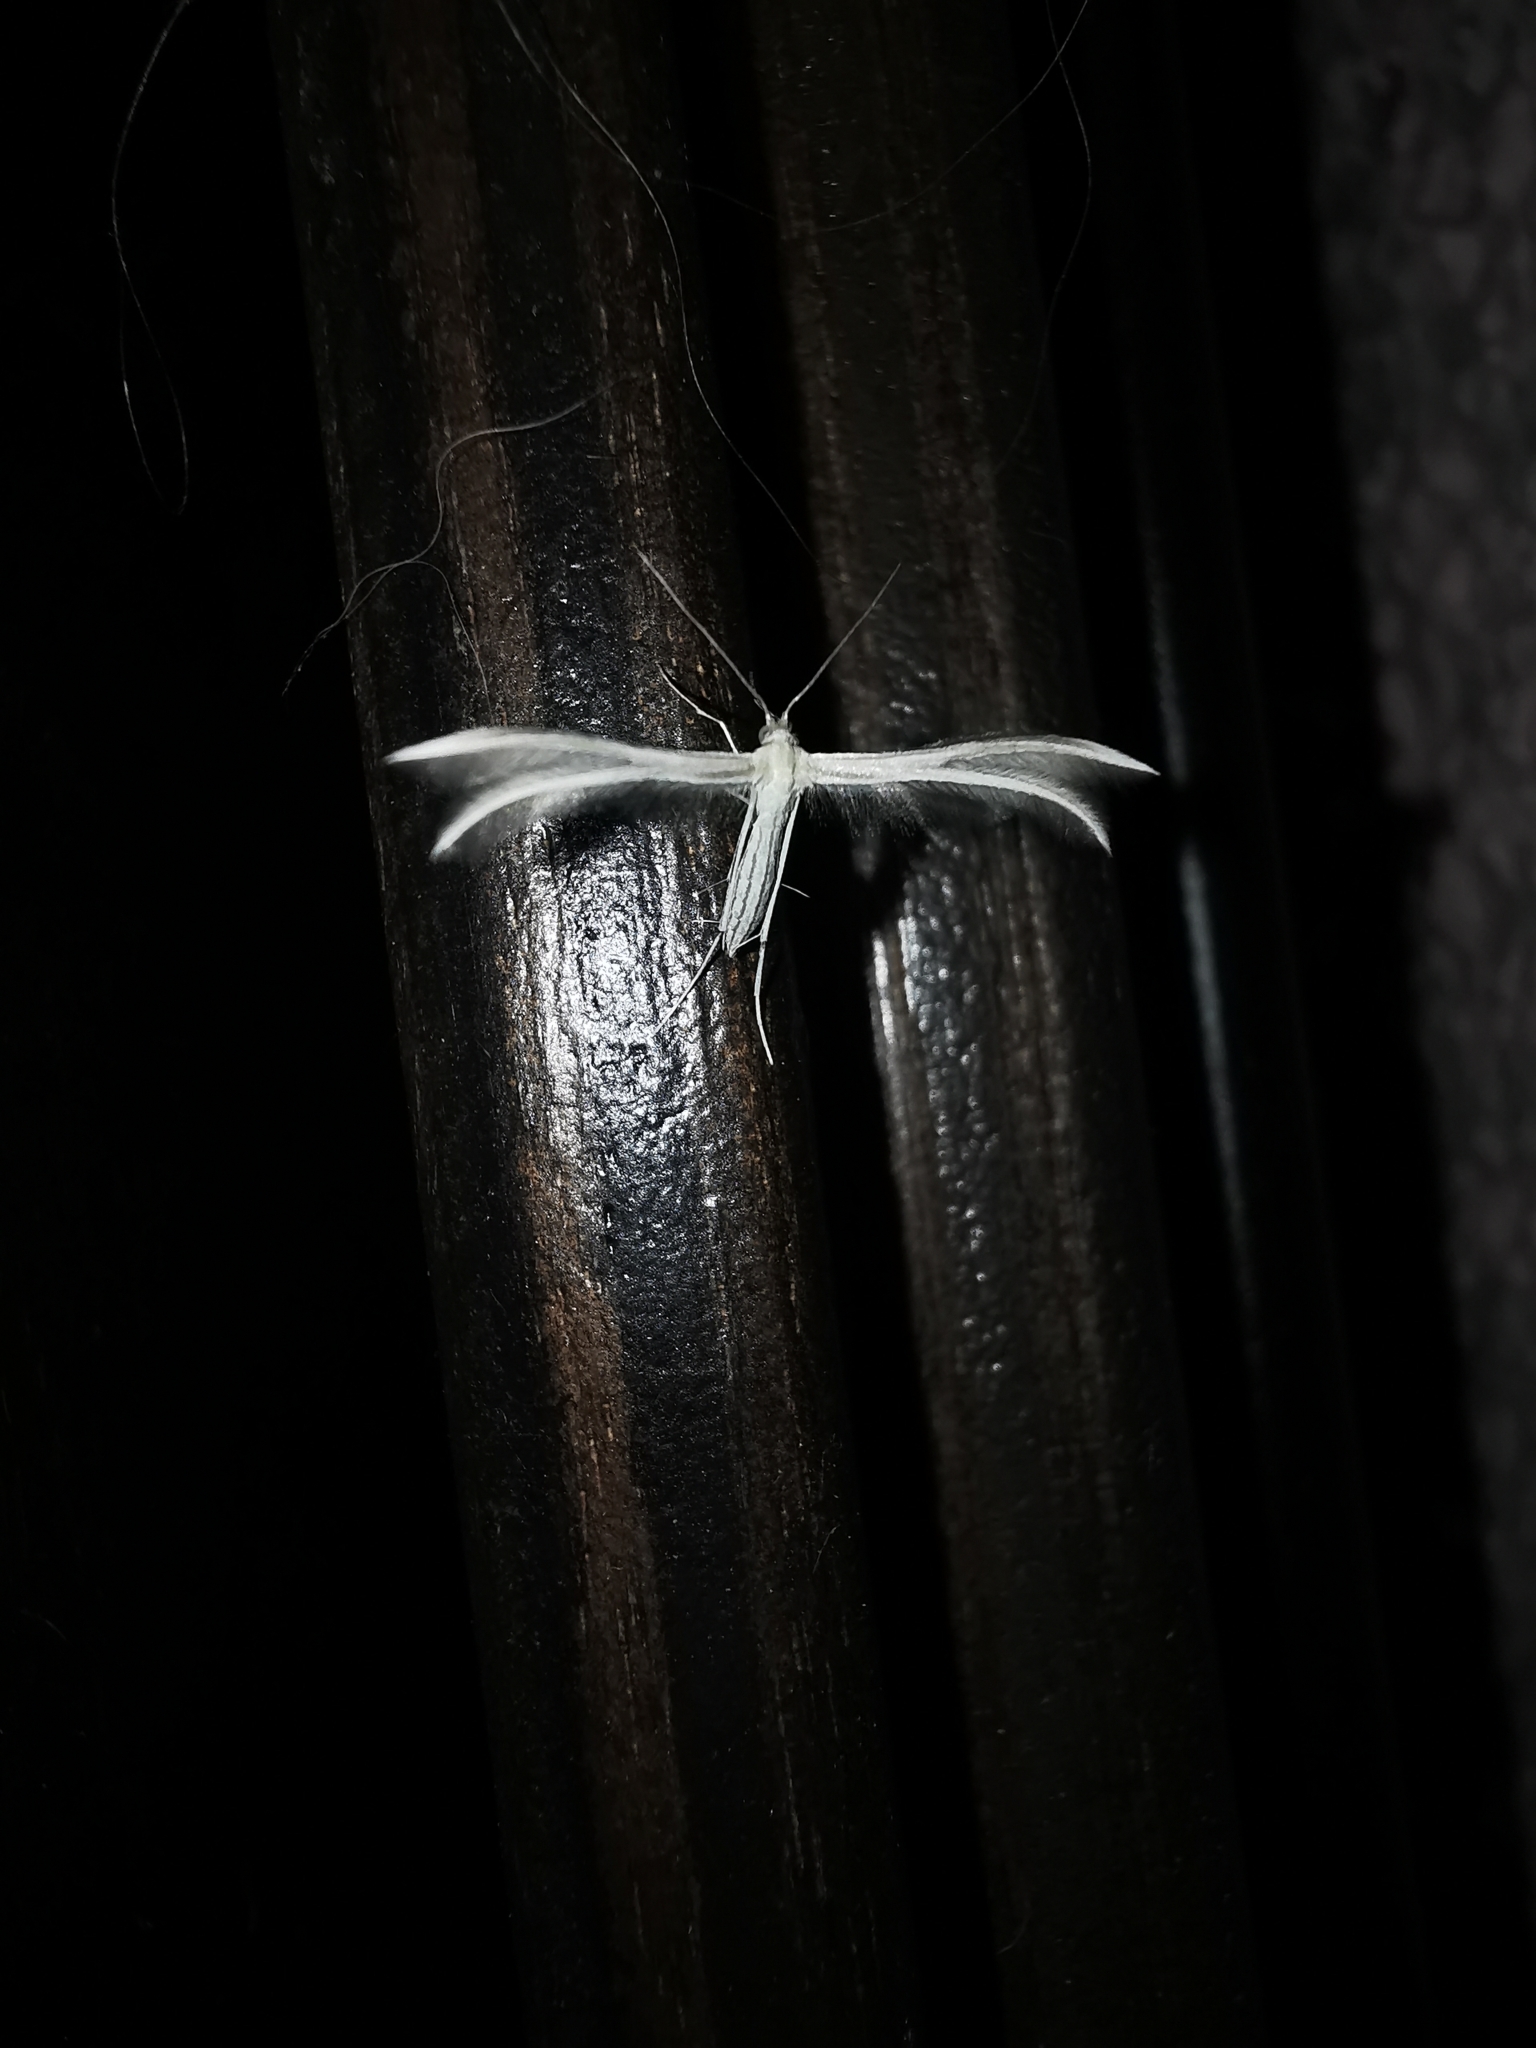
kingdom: Animalia
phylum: Arthropoda
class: Insecta
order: Lepidoptera
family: Pterophoridae
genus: Pterophorus
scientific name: Pterophorus pentadactyla
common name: White plume moth
